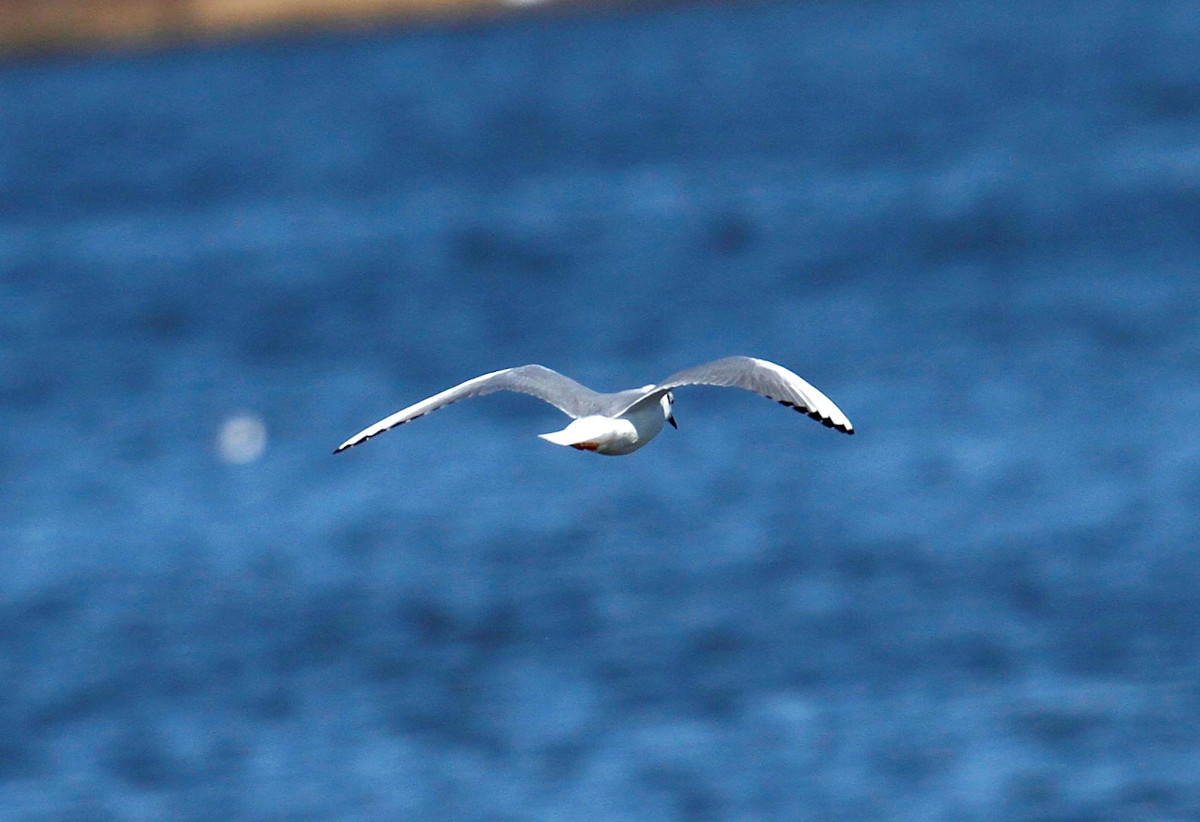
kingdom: Animalia
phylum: Chordata
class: Aves
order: Charadriiformes
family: Laridae
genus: Chroicocephalus
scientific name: Chroicocephalus philadelphia
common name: Bonaparte's gull
